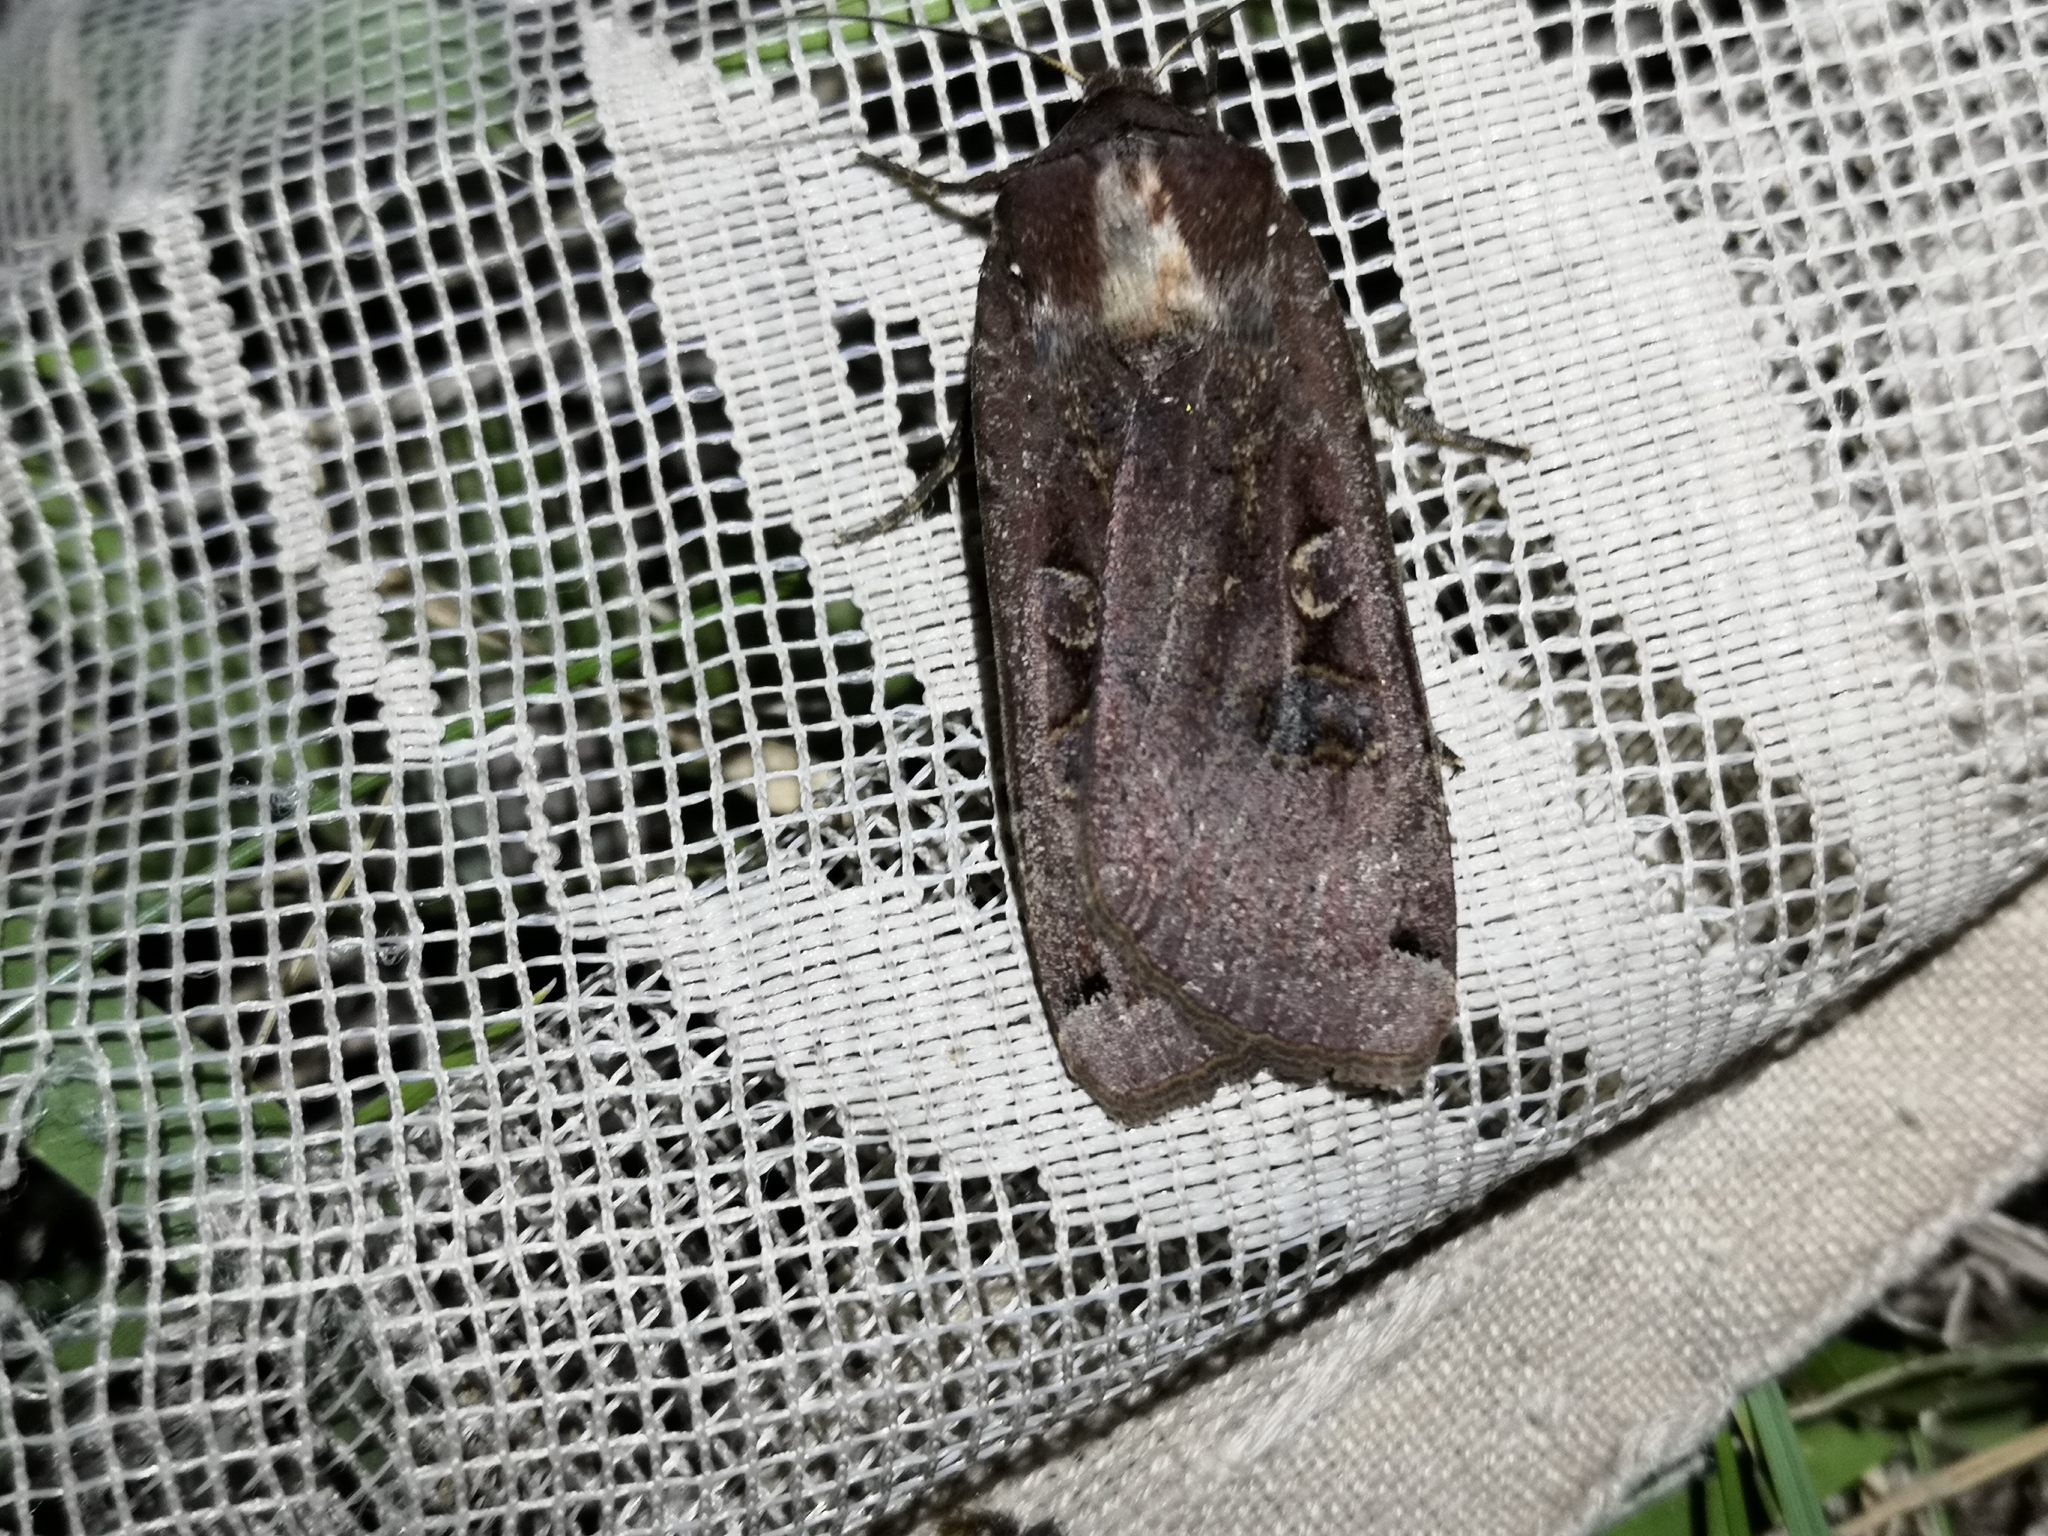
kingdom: Animalia
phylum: Arthropoda
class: Insecta
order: Lepidoptera
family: Noctuidae
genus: Noctua
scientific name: Noctua pronuba
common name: Large yellow underwing
